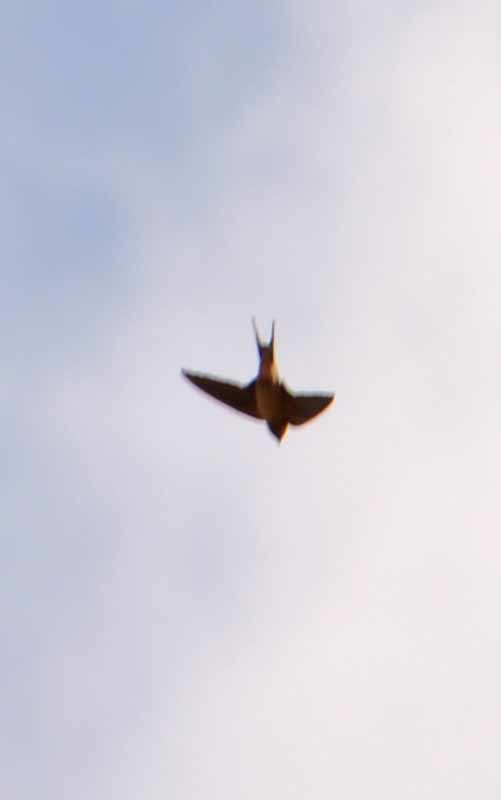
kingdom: Animalia
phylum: Chordata
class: Aves
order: Passeriformes
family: Hirundinidae
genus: Hirundo
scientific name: Hirundo rustica
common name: Barn swallow
